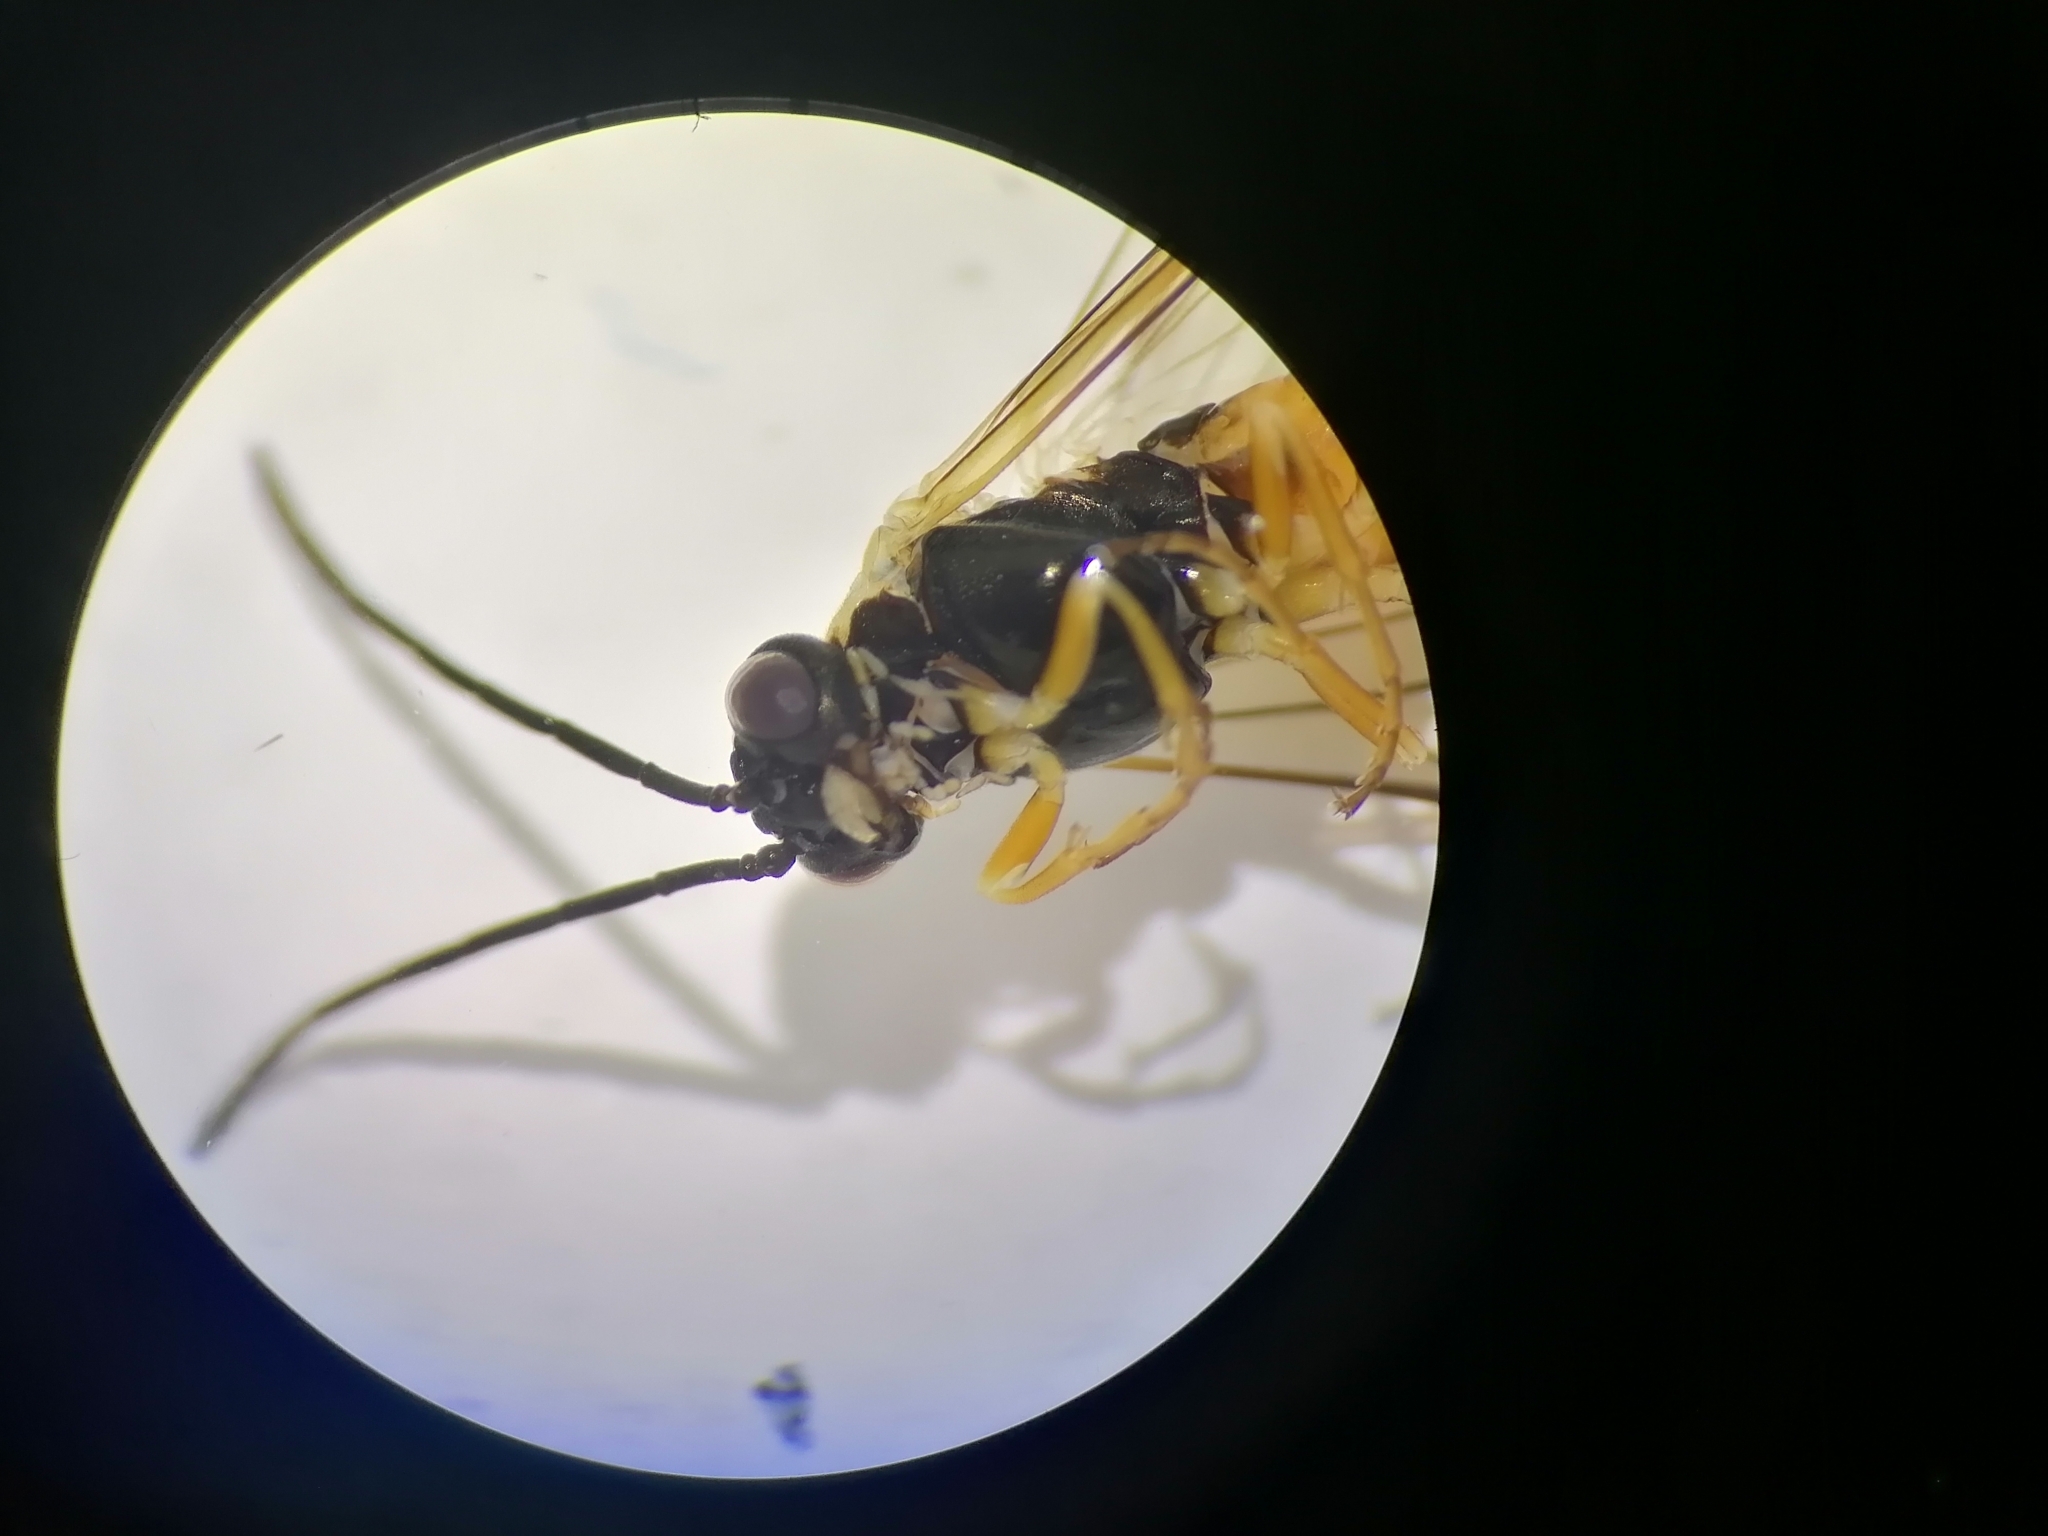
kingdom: Animalia
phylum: Arthropoda
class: Insecta
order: Hymenoptera
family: Tenthredinidae
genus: Strongylogaster
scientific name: Strongylogaster macula
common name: Tenthredid wasp
